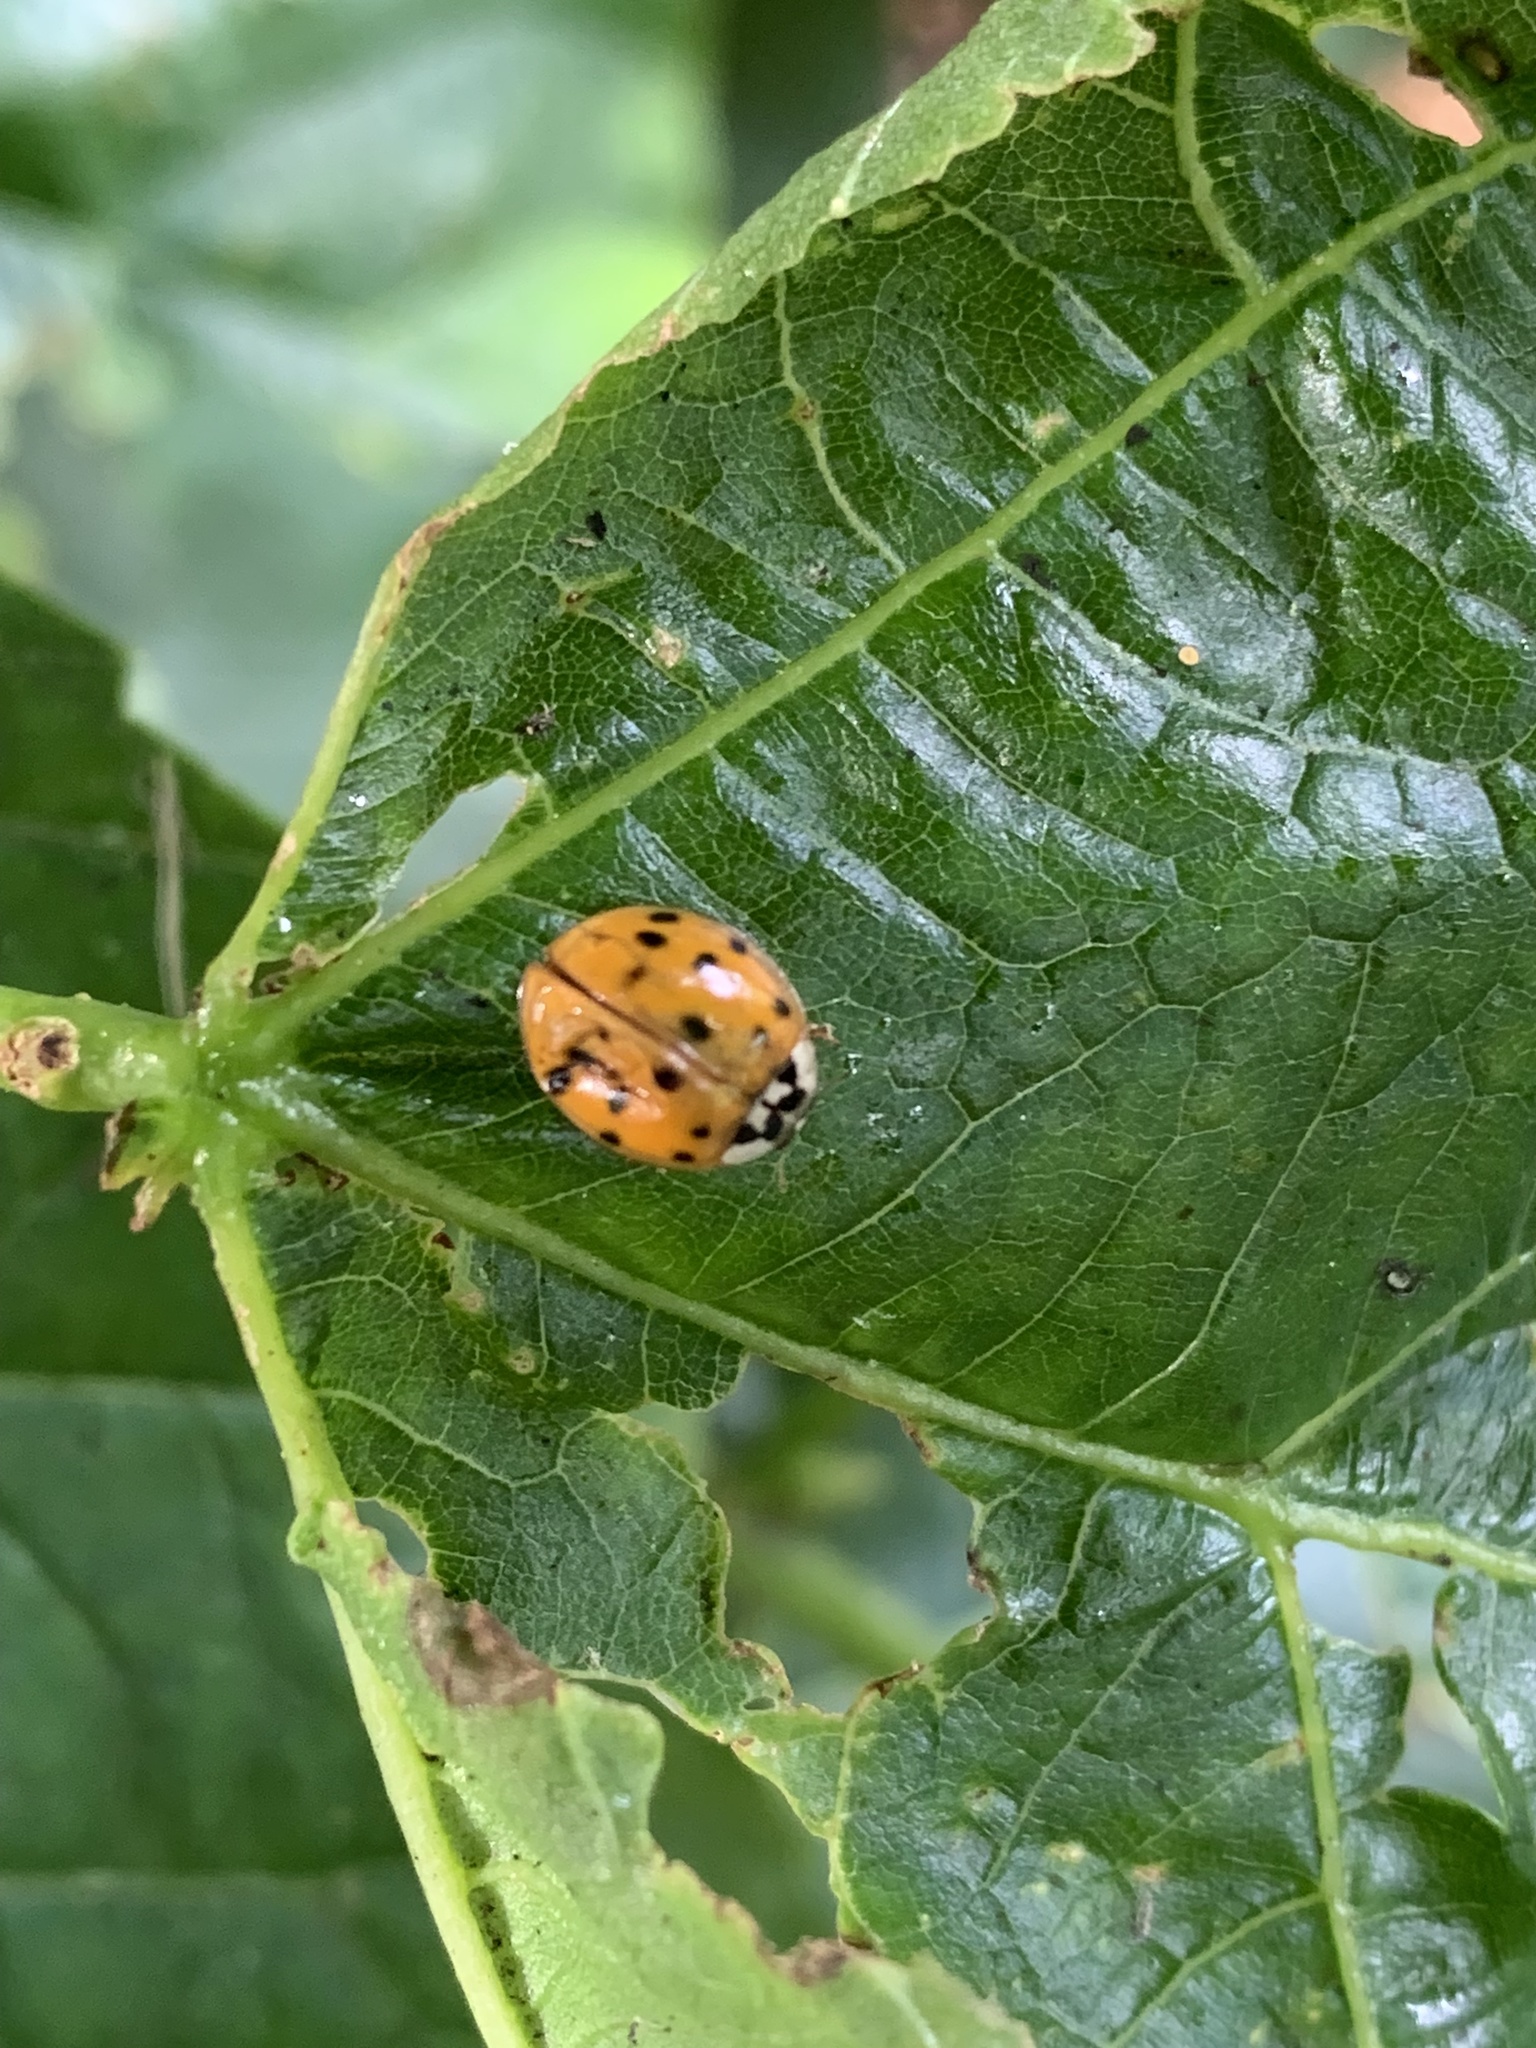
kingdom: Animalia
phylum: Arthropoda
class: Insecta
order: Coleoptera
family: Coccinellidae
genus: Harmonia
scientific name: Harmonia axyridis
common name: Harlequin ladybird
